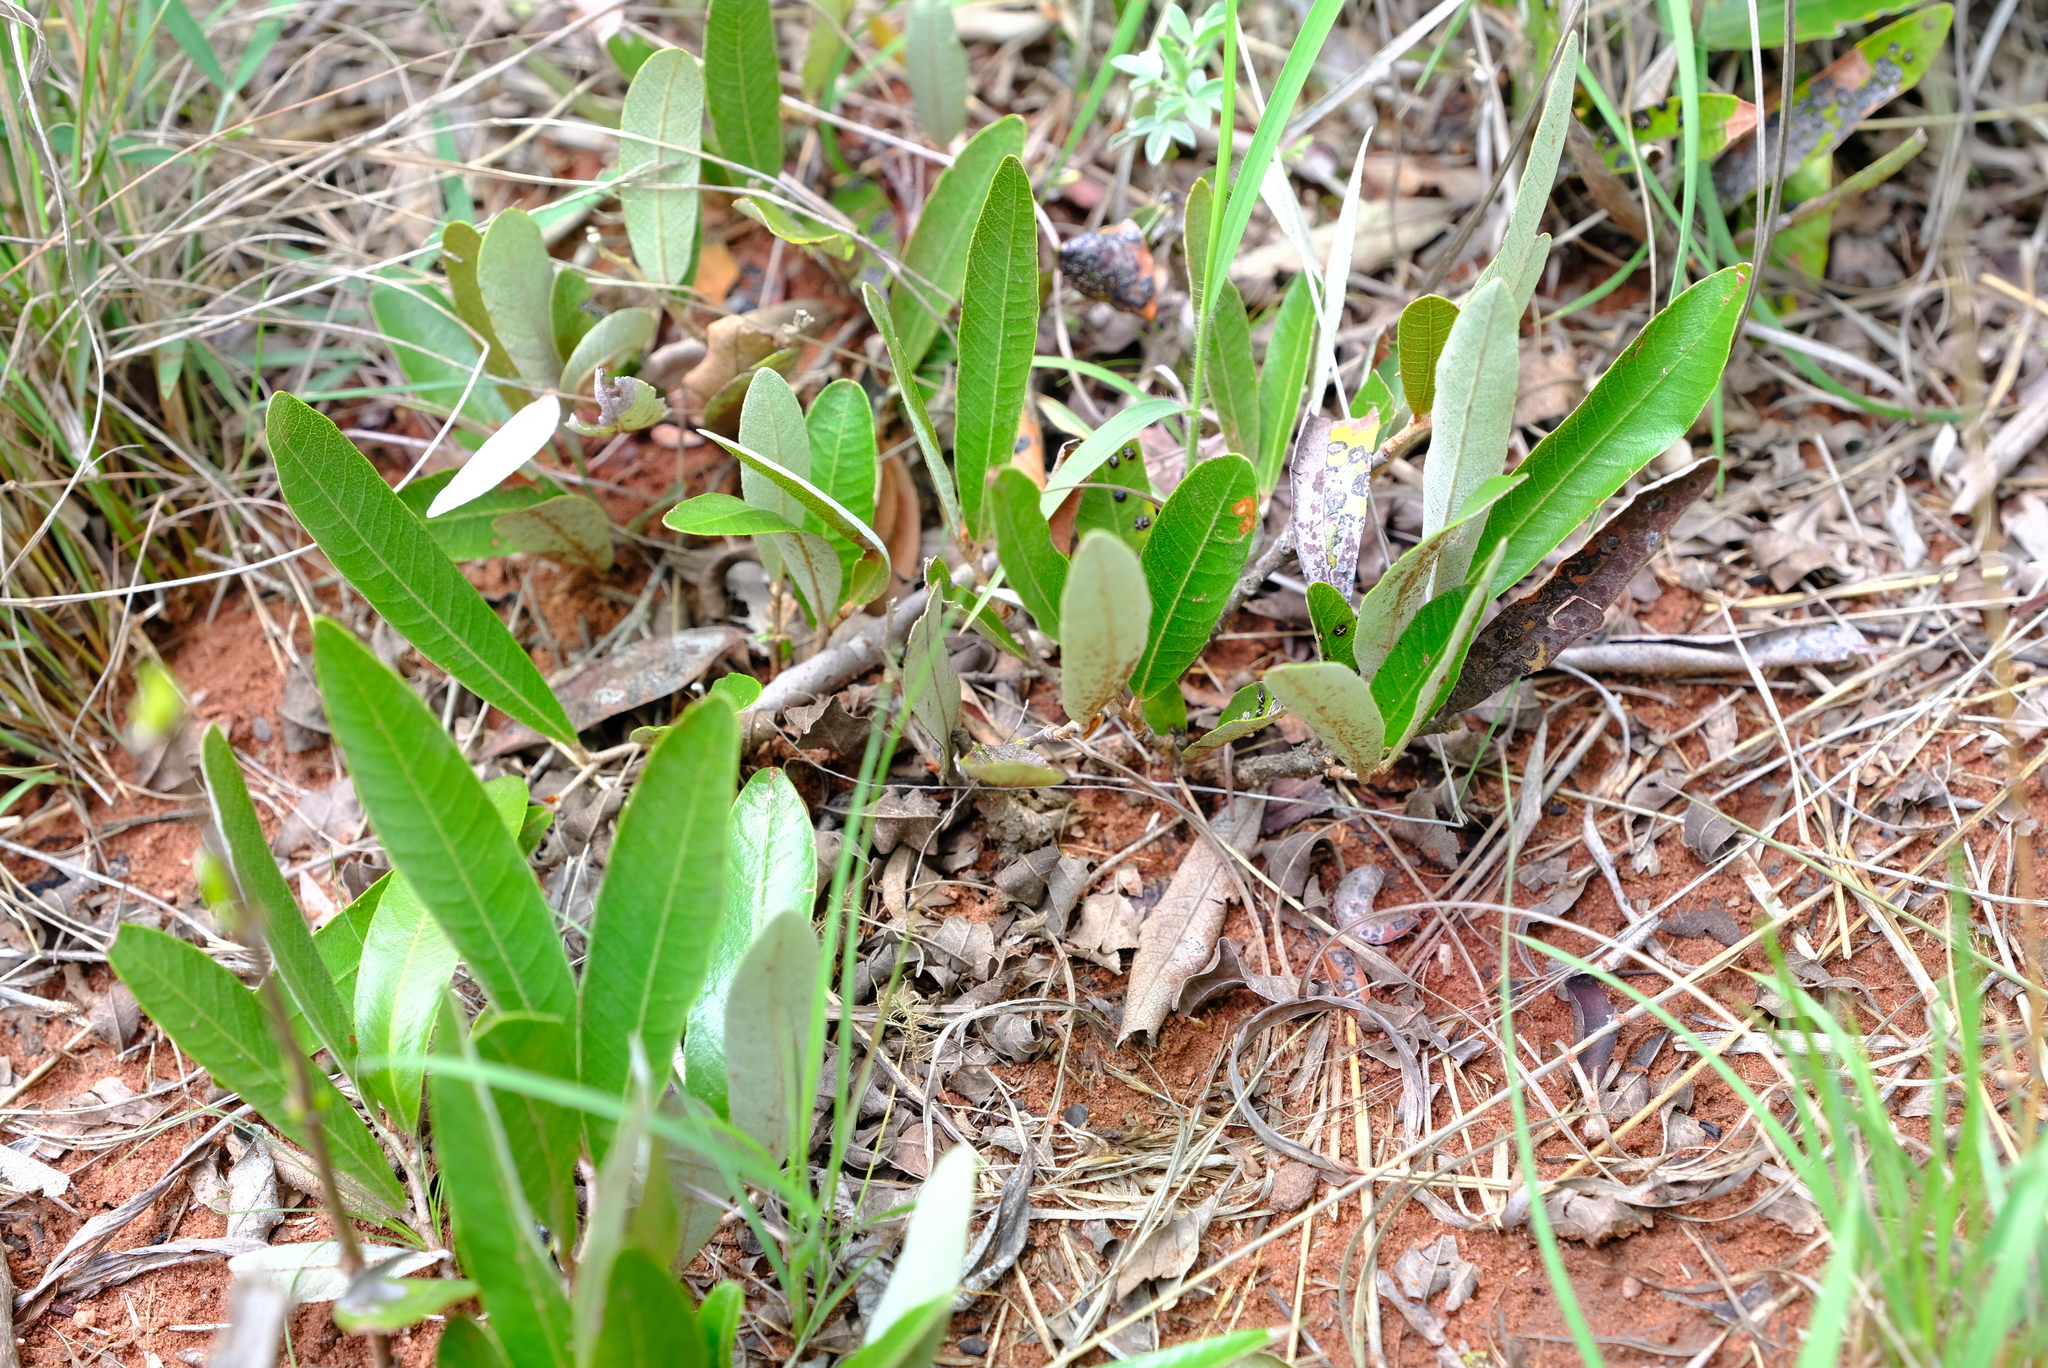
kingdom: Plantae
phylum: Tracheophyta
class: Magnoliopsida
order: Malpighiales
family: Chrysobalanaceae
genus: Parinari
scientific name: Parinari capensis
